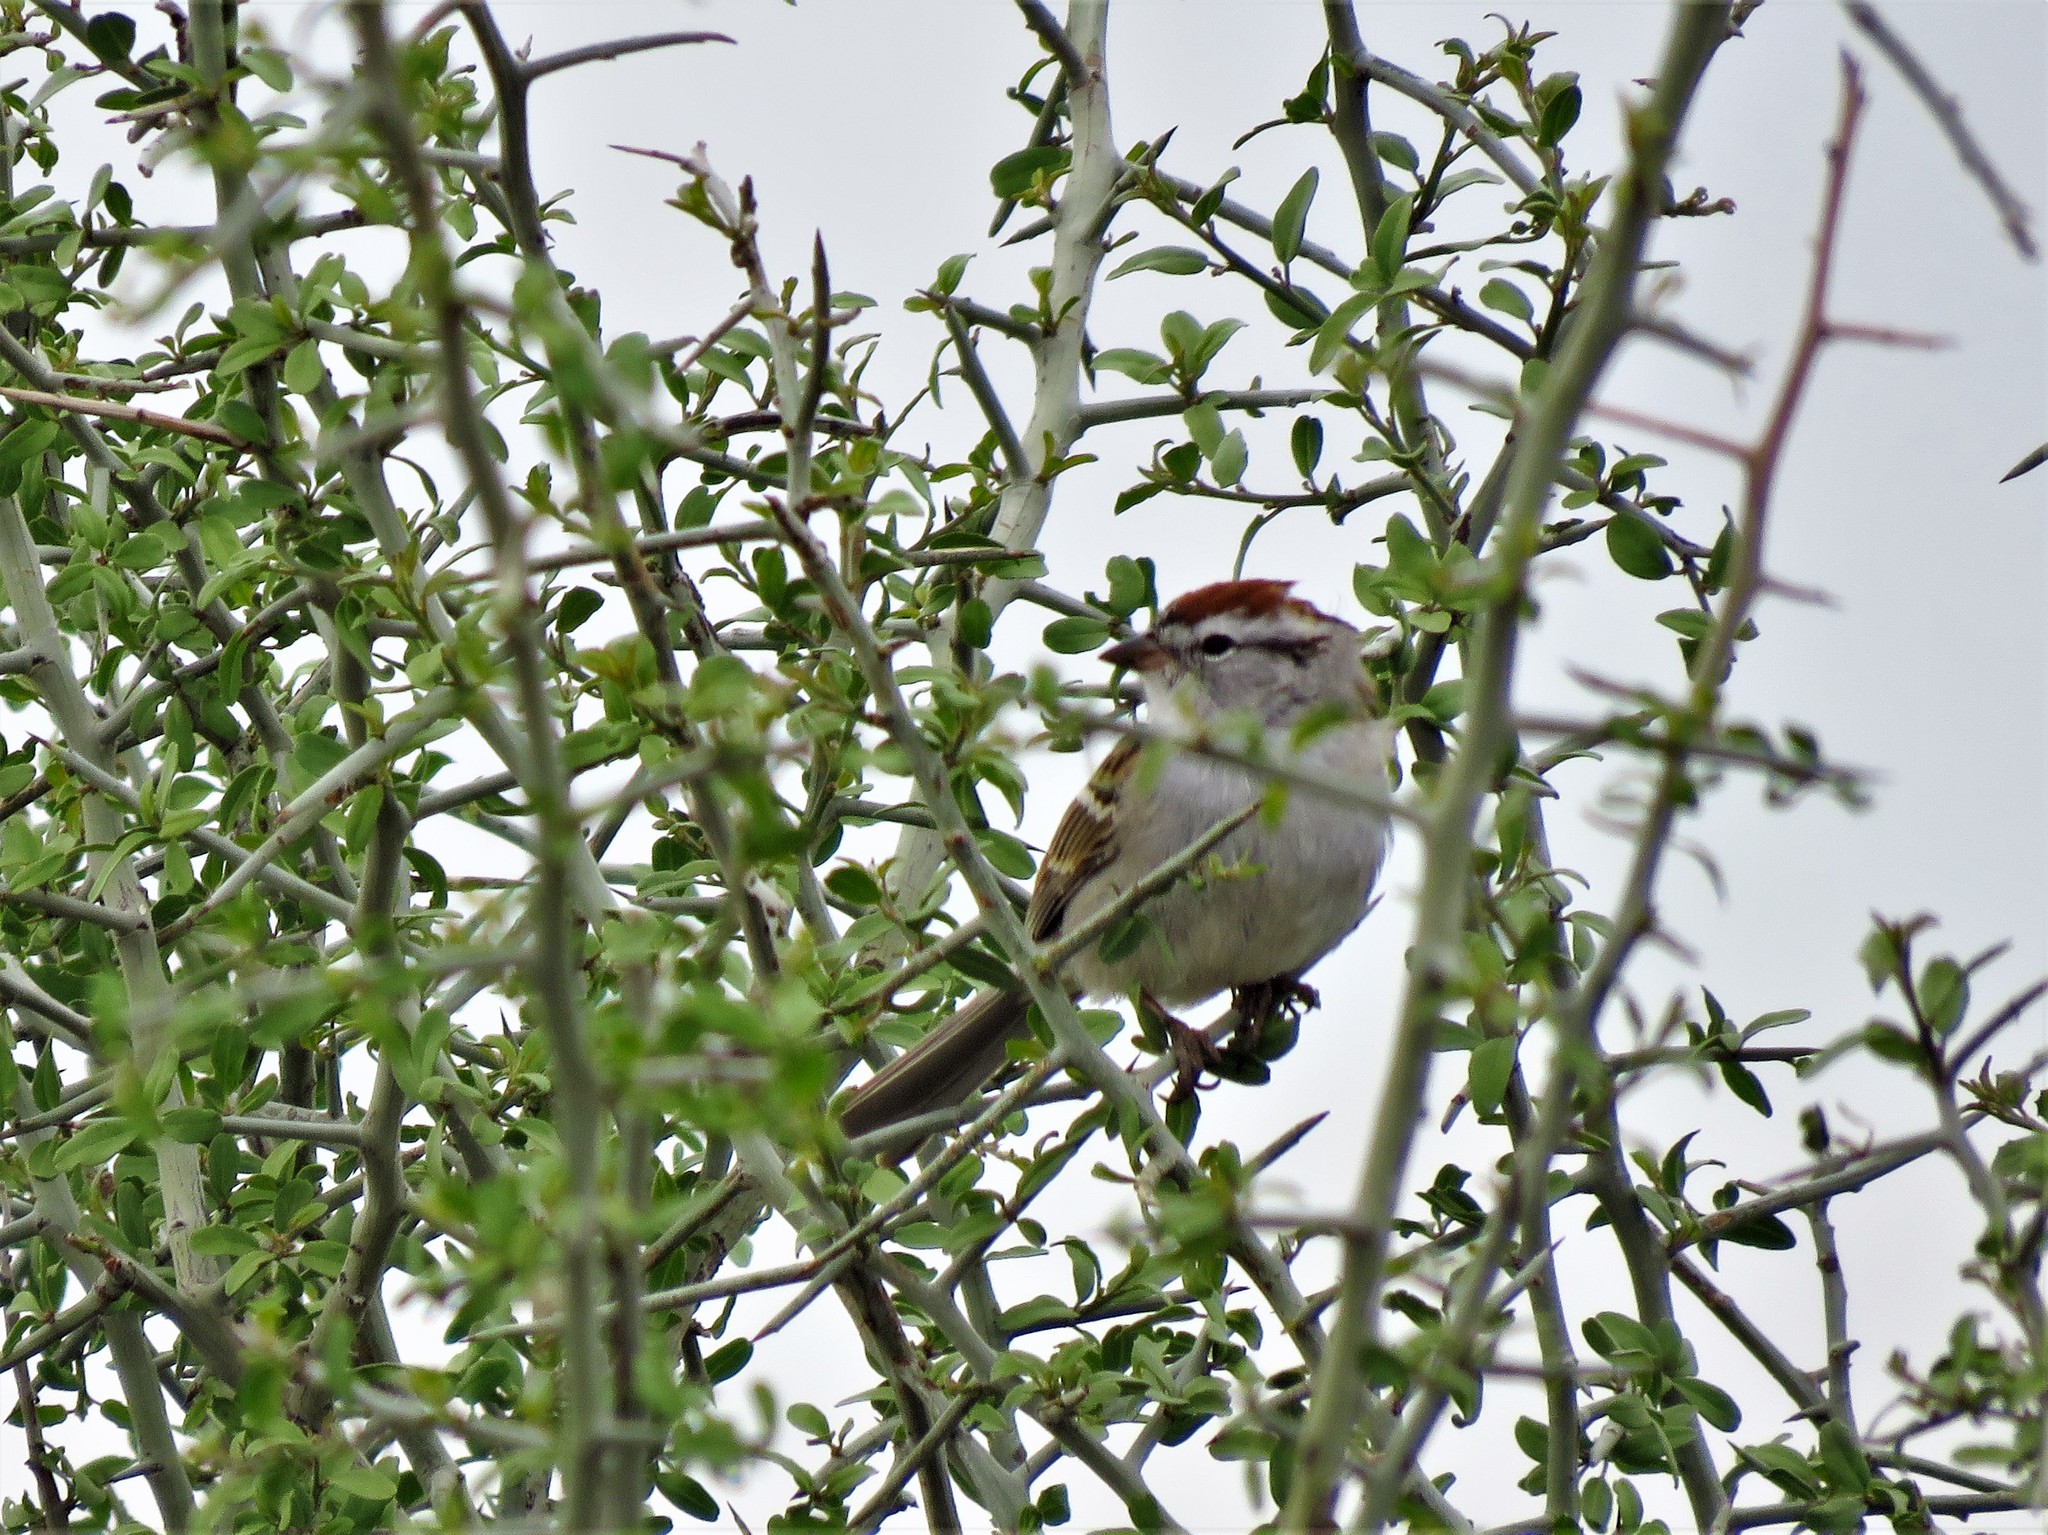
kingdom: Animalia
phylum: Chordata
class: Aves
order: Passeriformes
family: Passerellidae
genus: Spizella
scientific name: Spizella passerina
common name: Chipping sparrow
